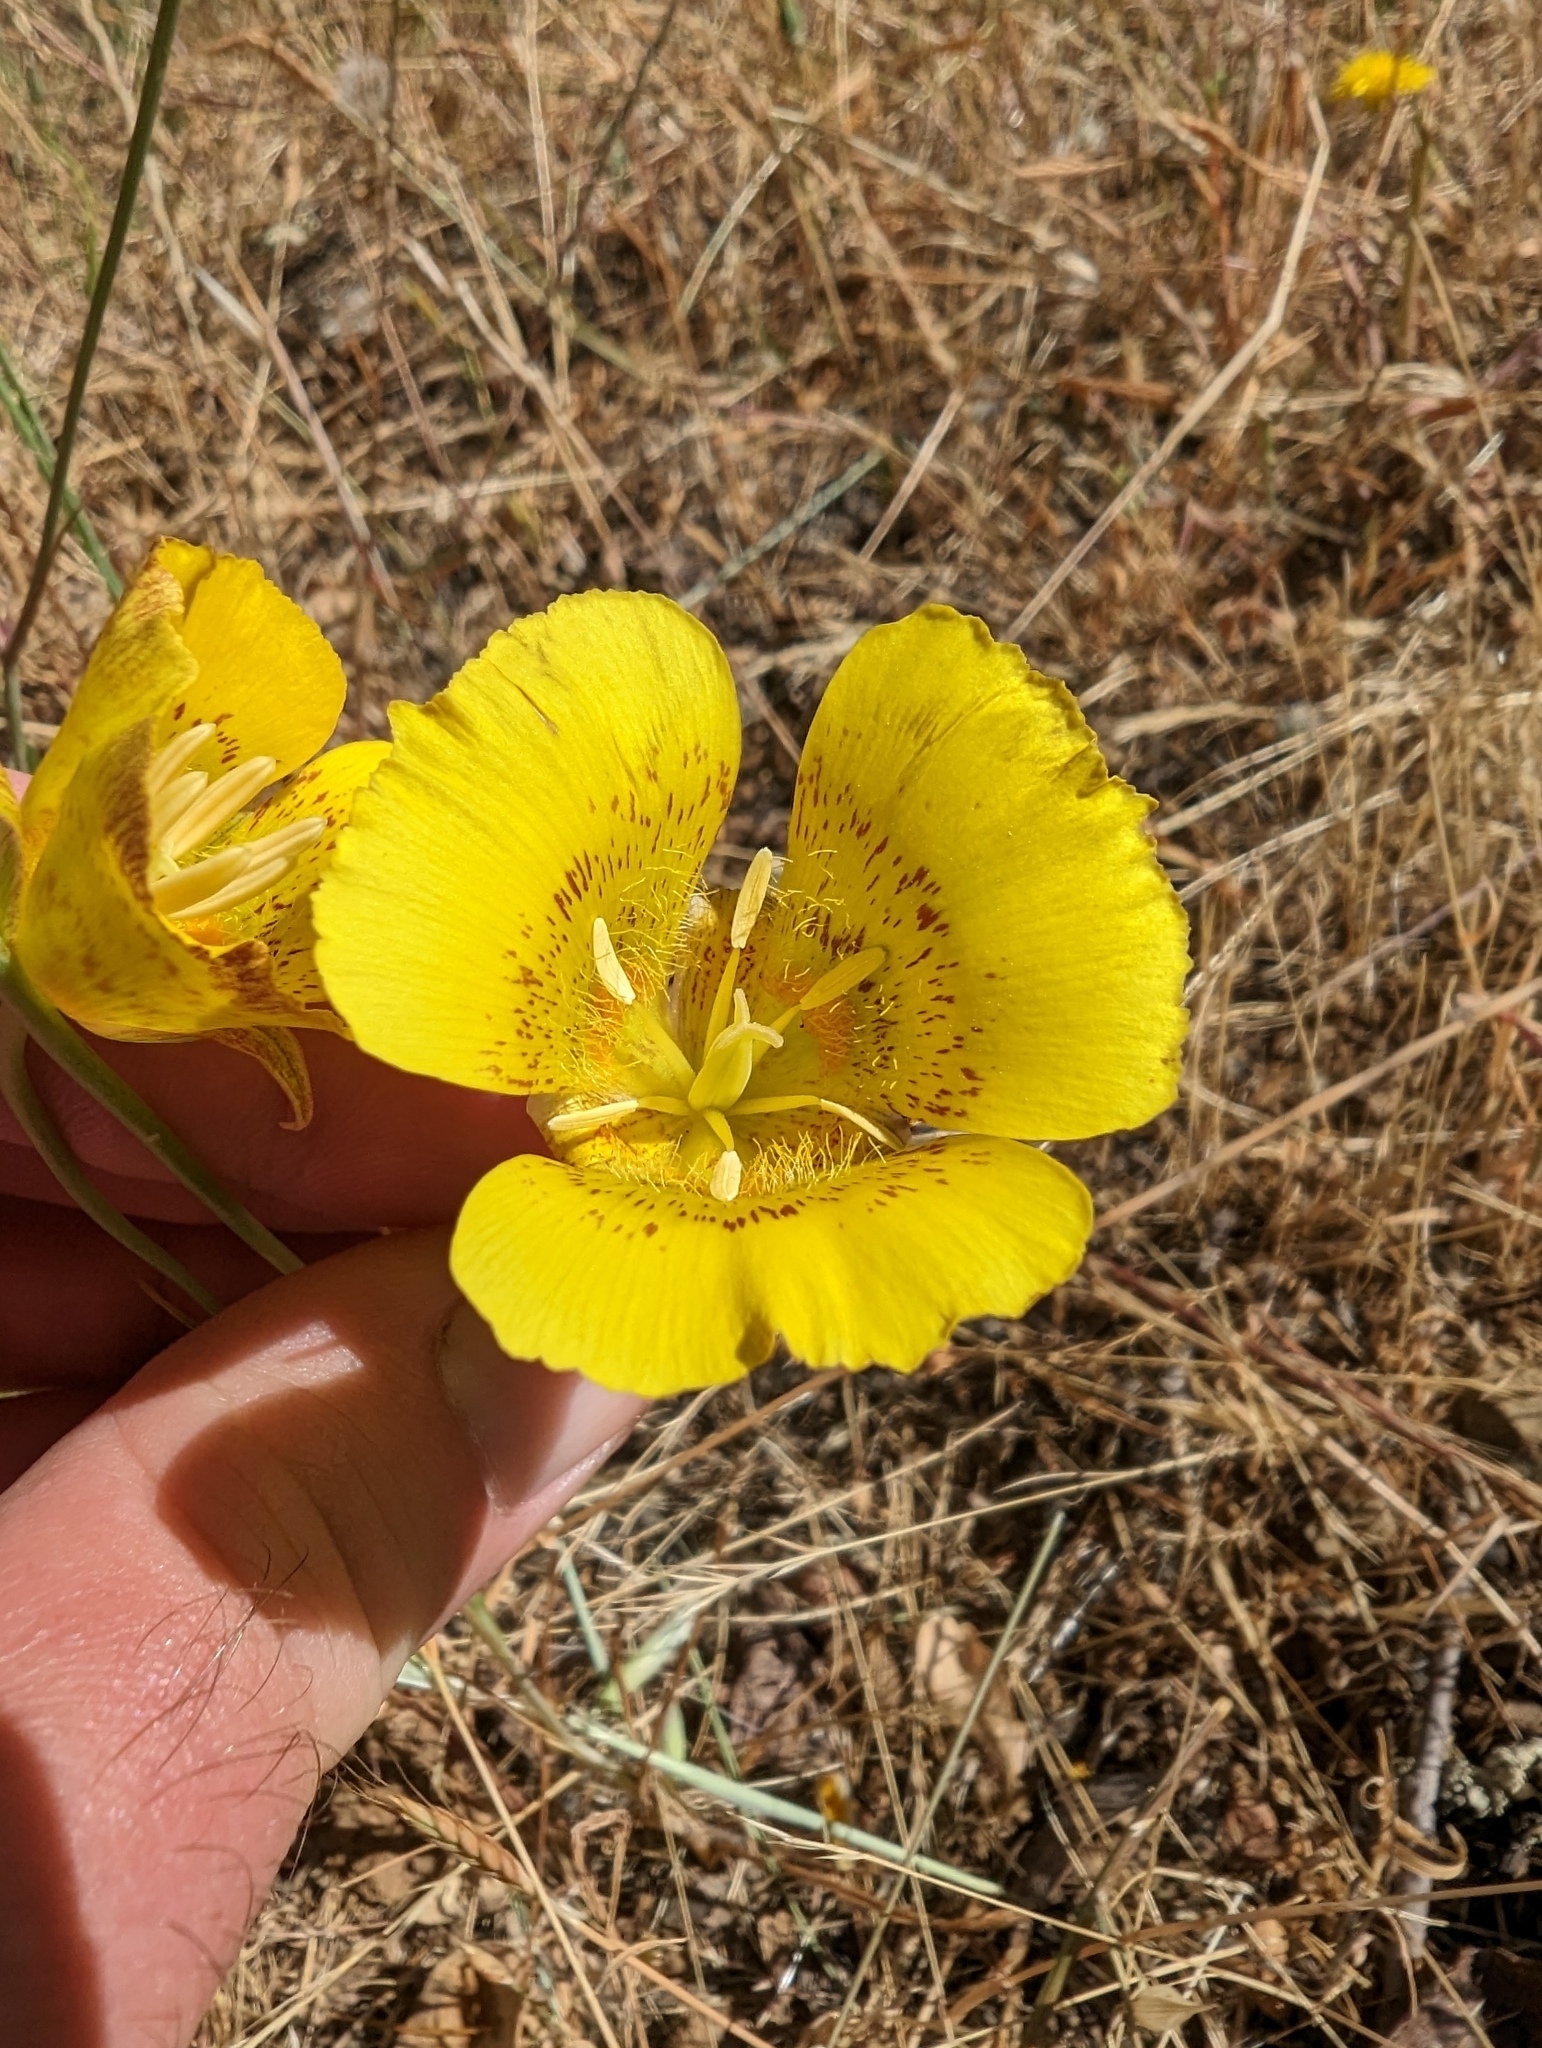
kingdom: Plantae
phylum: Tracheophyta
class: Liliopsida
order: Liliales
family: Liliaceae
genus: Calochortus
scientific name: Calochortus luteus
